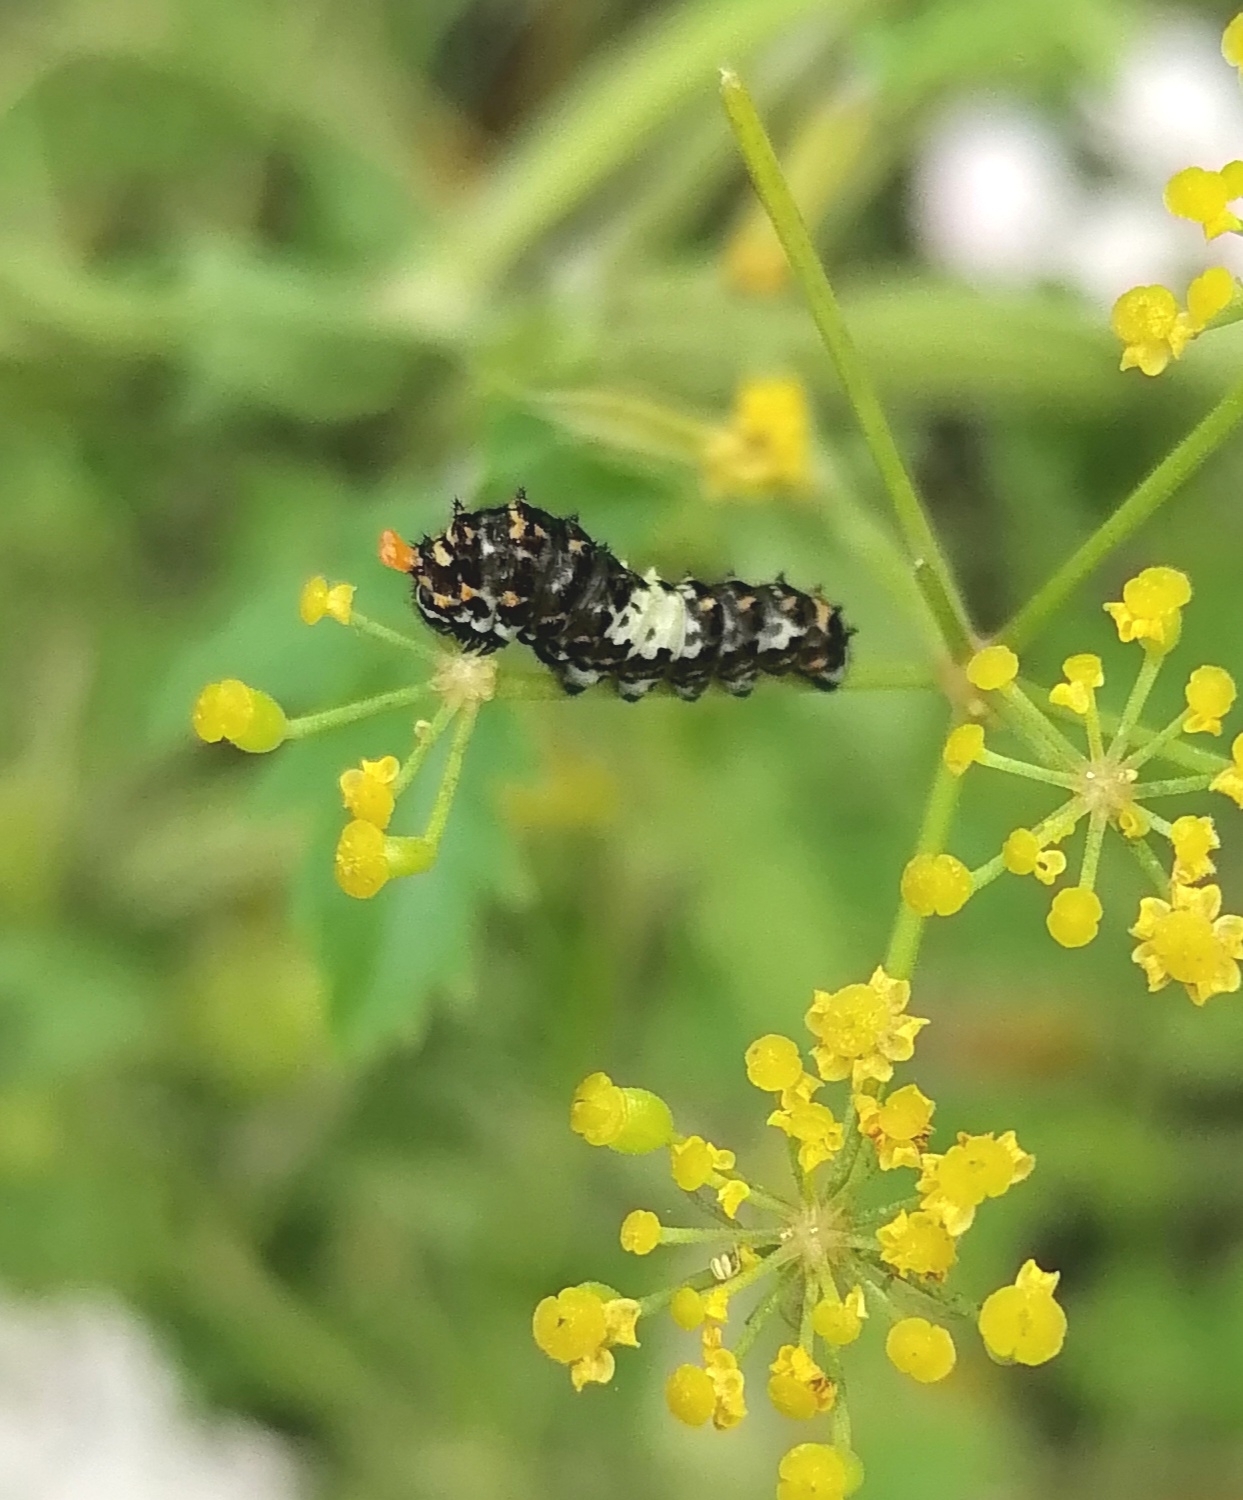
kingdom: Animalia
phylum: Arthropoda
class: Insecta
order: Lepidoptera
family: Papilionidae
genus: Papilio
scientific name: Papilio machaon
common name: Swallowtail
